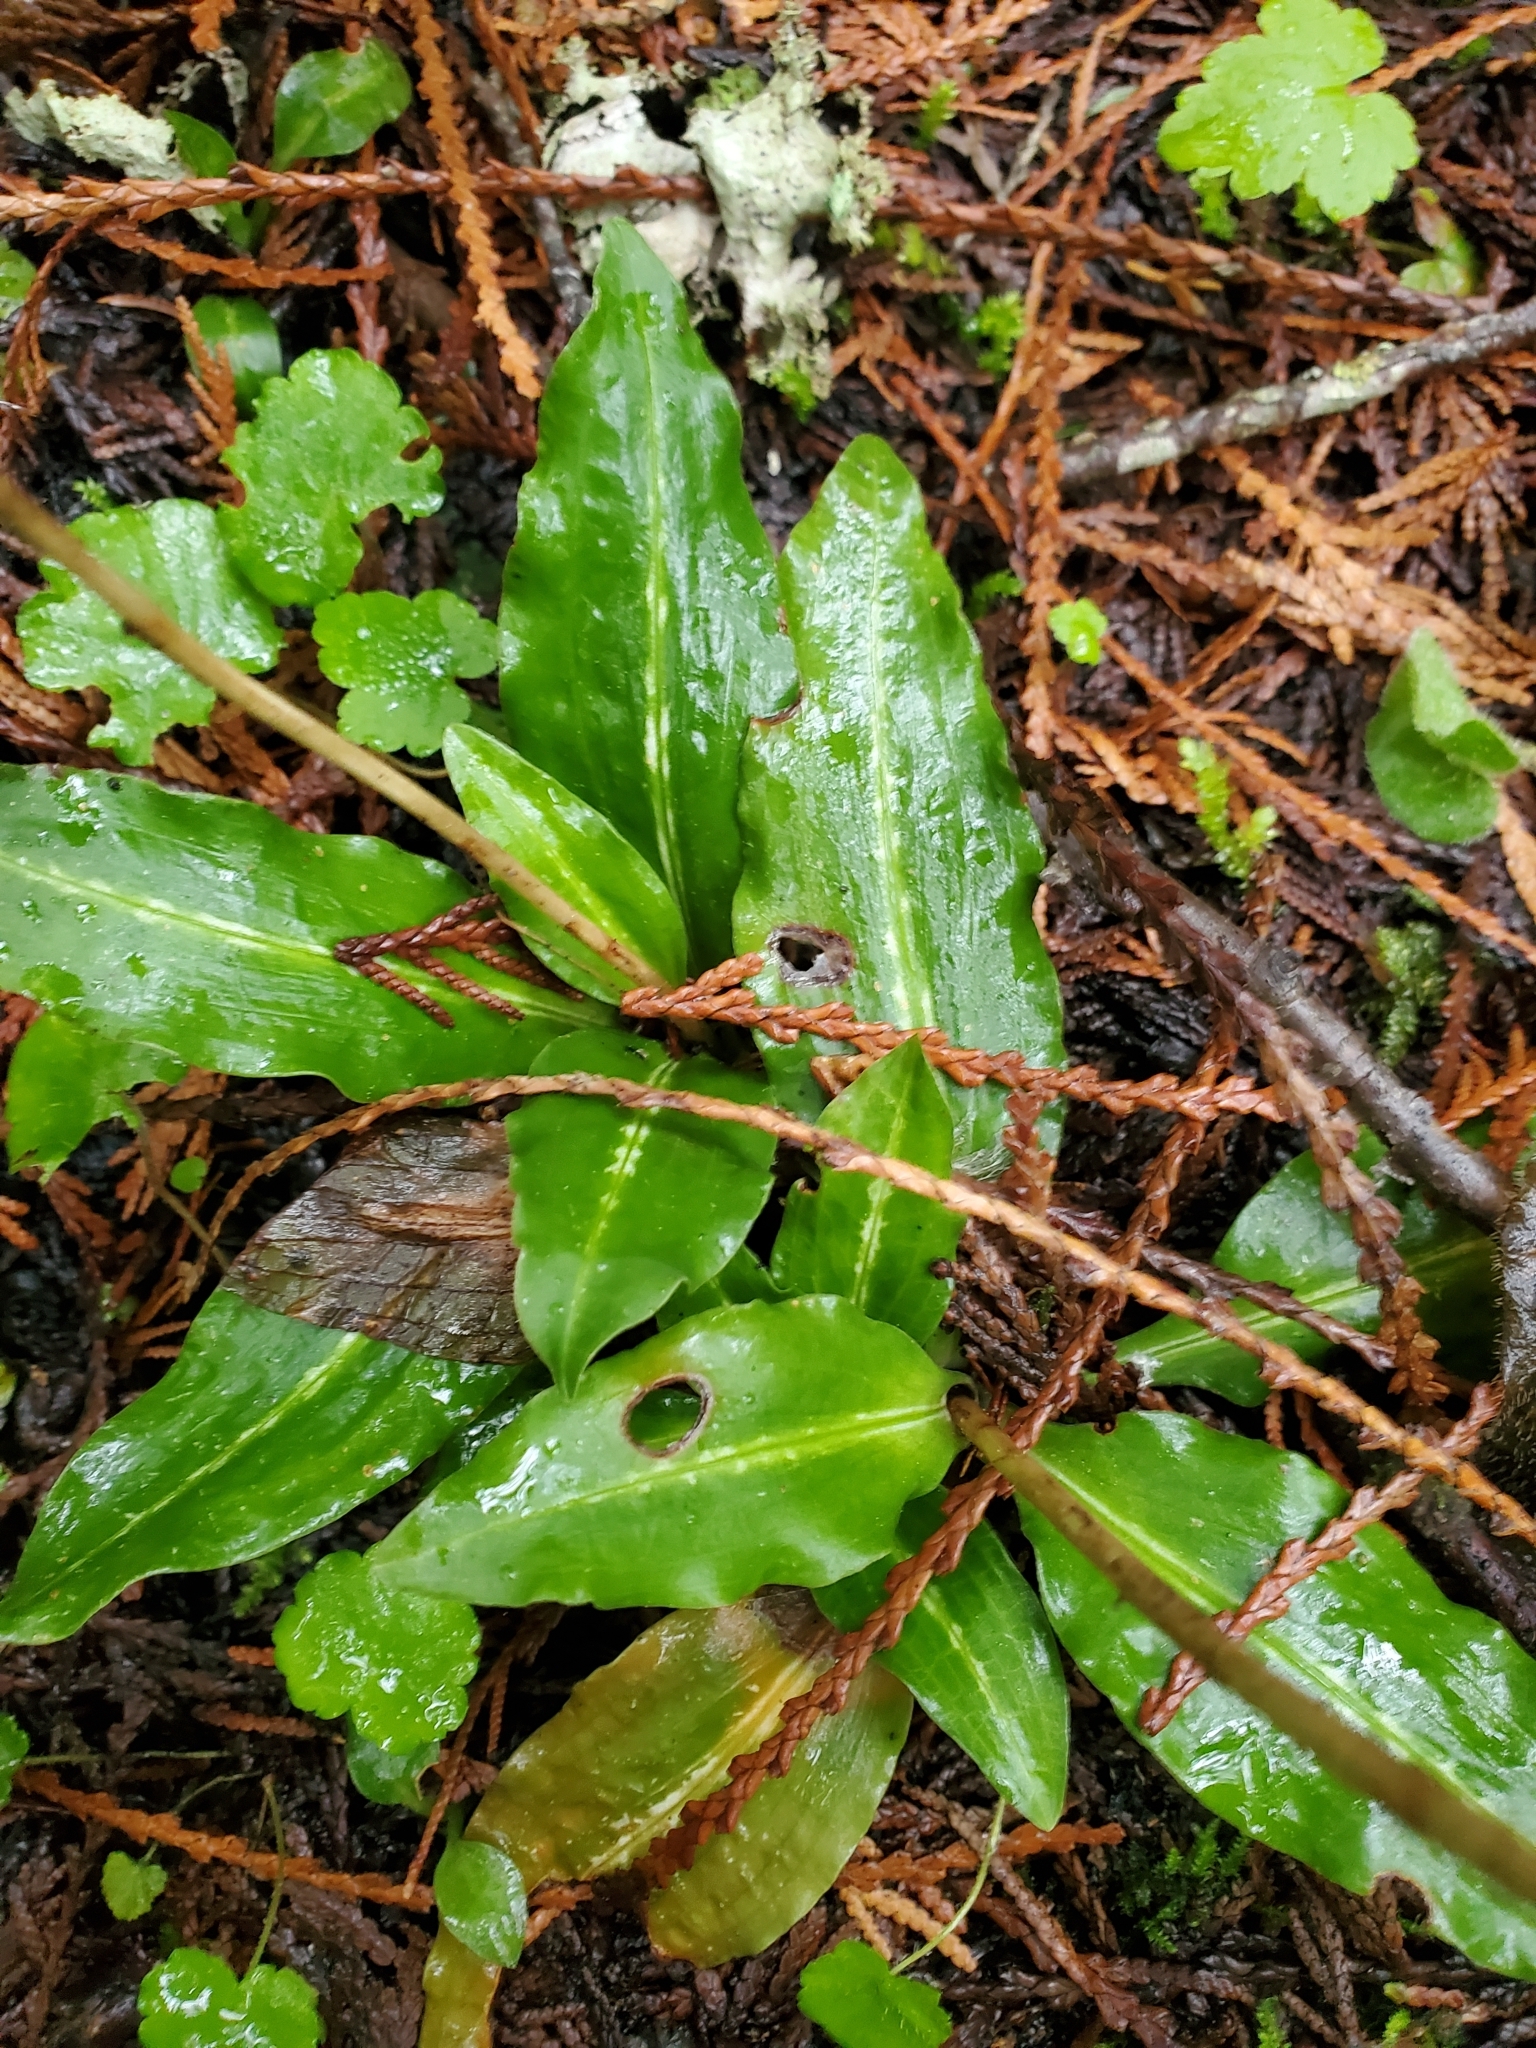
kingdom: Plantae
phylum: Tracheophyta
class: Liliopsida
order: Asparagales
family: Orchidaceae
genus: Goodyera
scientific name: Goodyera oblongifolia
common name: Giant rattlesnake-plantain
